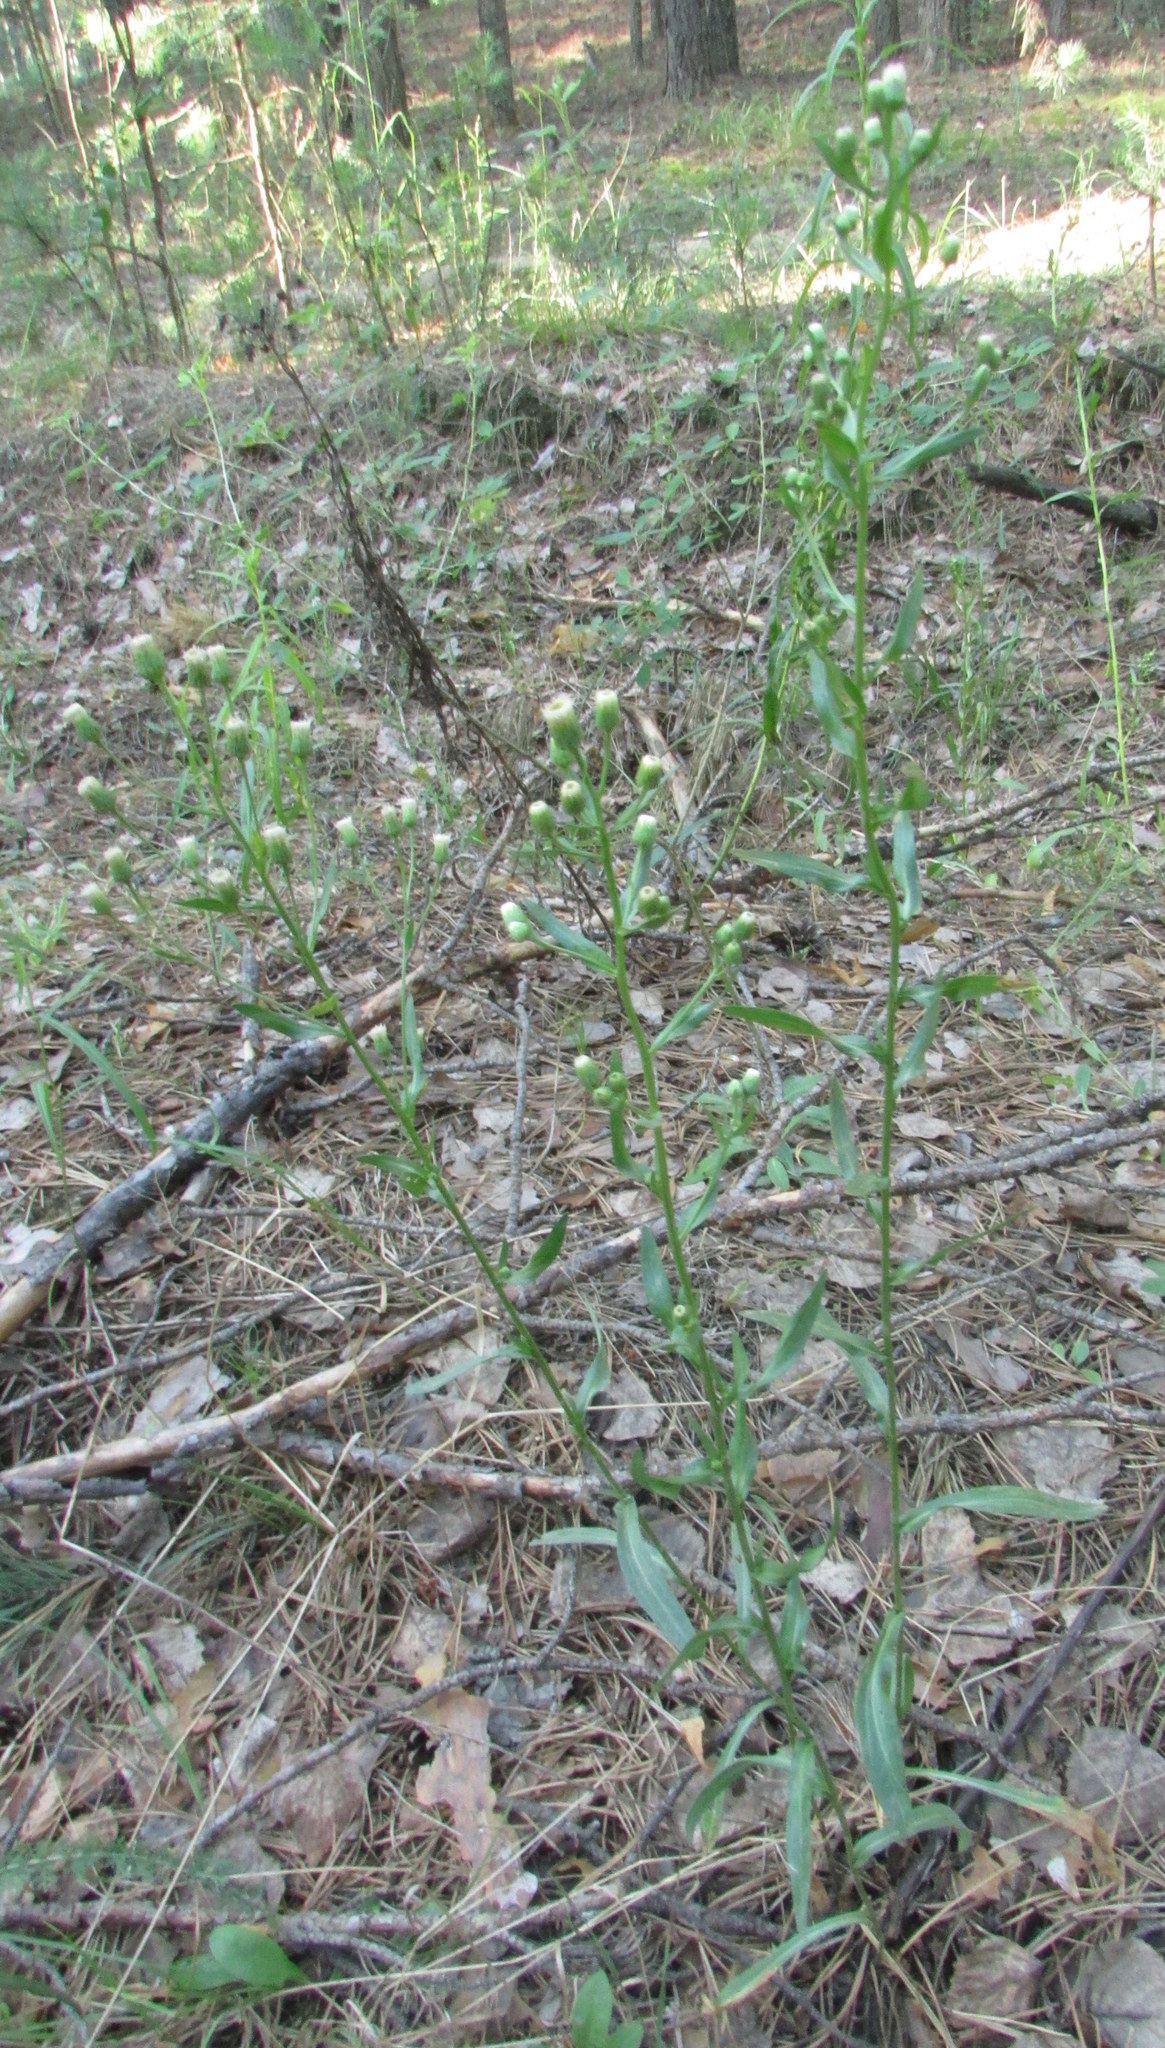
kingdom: Plantae
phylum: Tracheophyta
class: Magnoliopsida
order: Asterales
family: Asteraceae
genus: Erigeron
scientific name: Erigeron acris
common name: Blue fleabane
